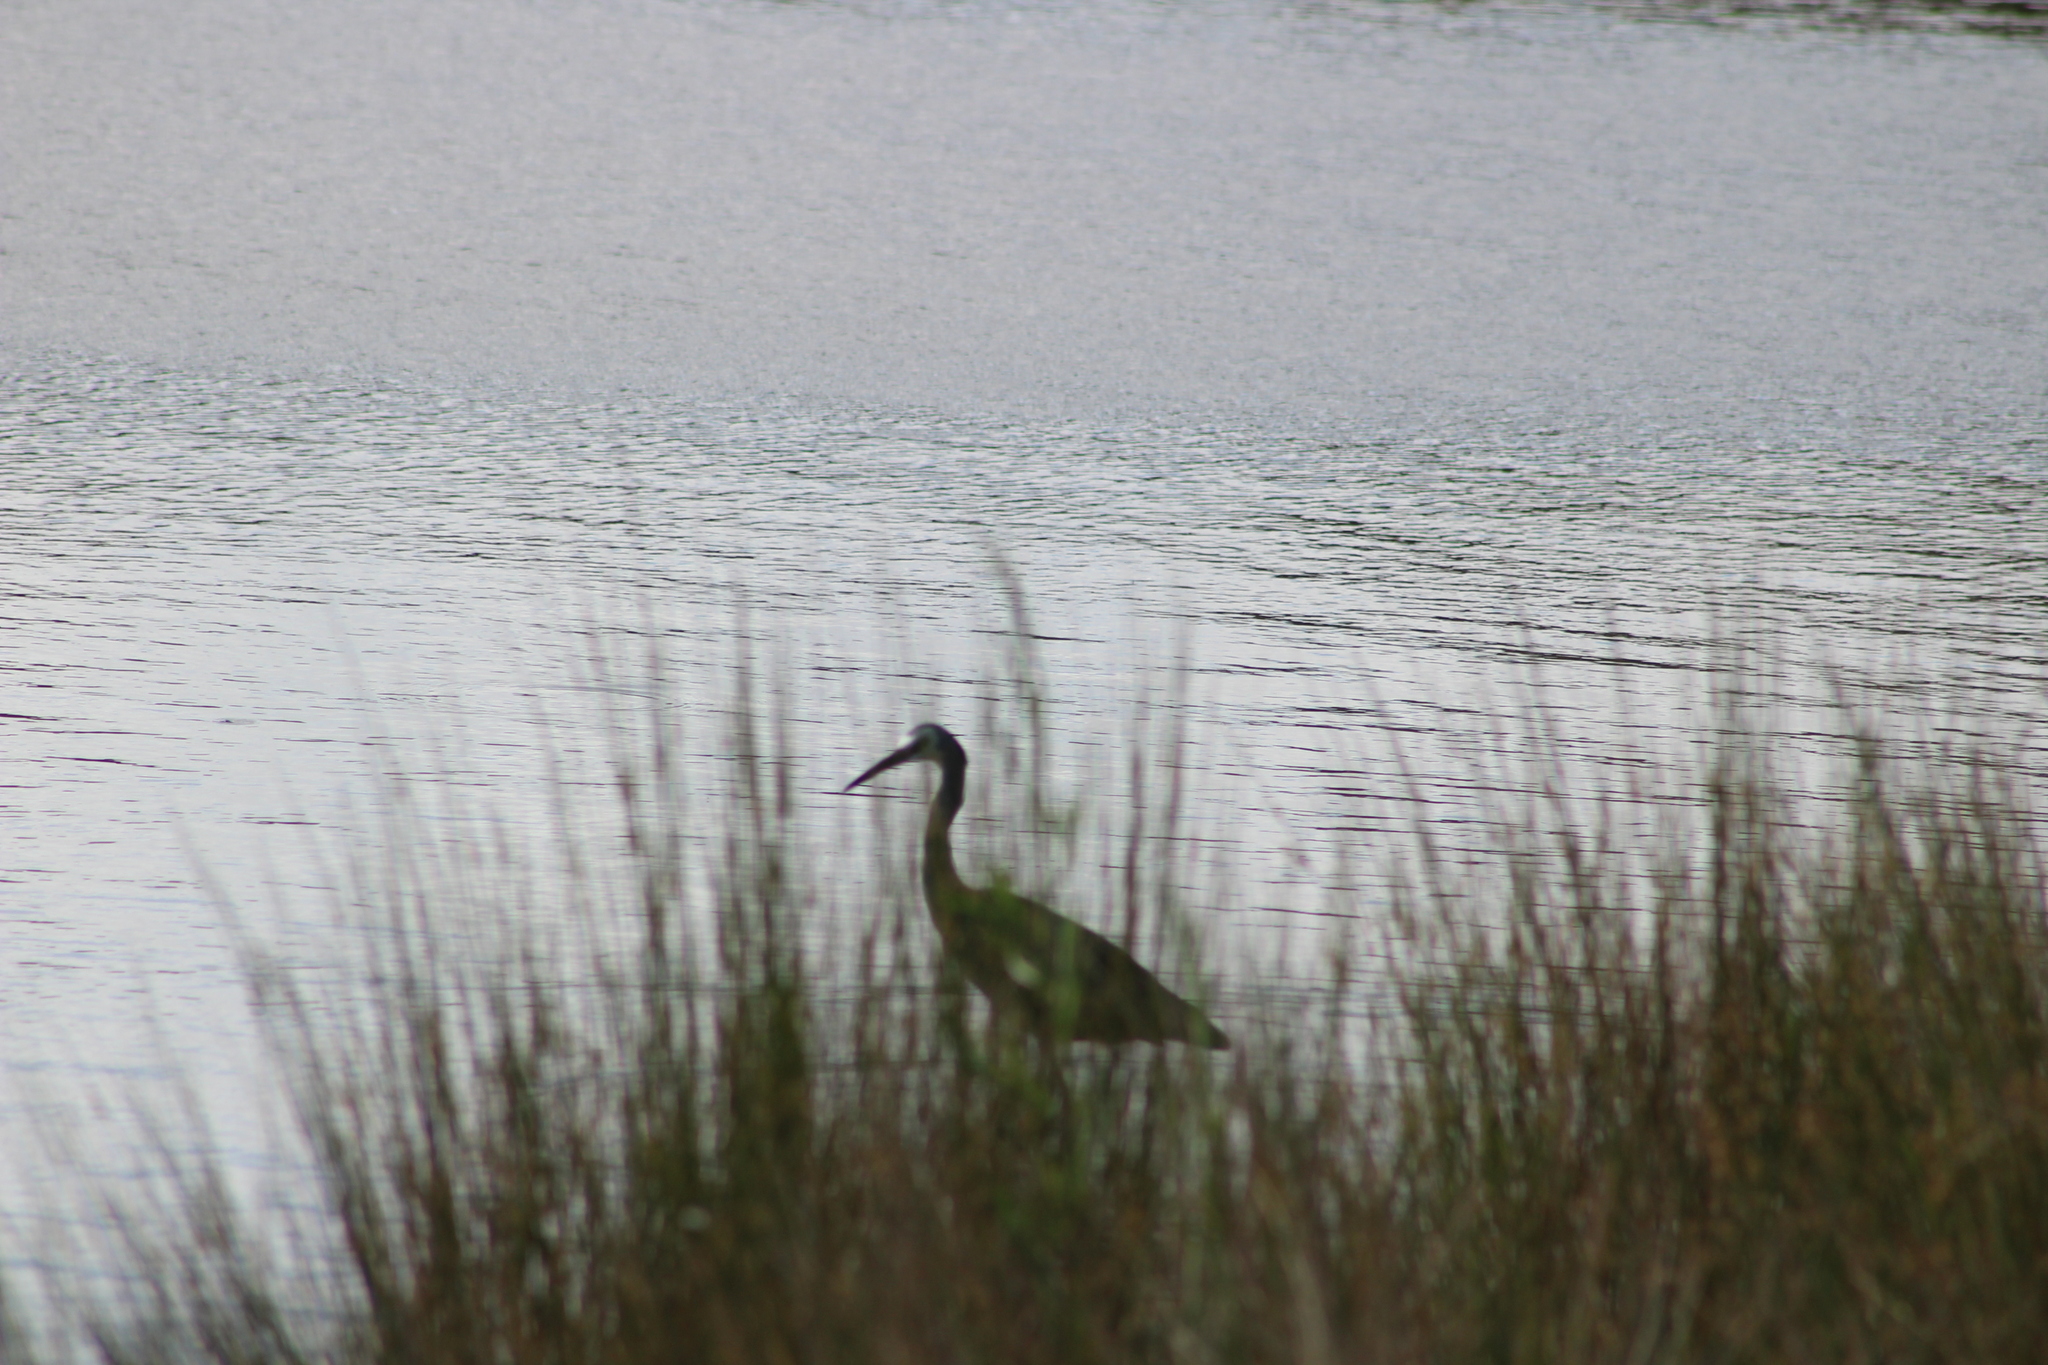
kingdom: Animalia
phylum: Chordata
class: Aves
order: Pelecaniformes
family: Ardeidae
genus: Egretta
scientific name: Egretta novaehollandiae
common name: White-faced heron
